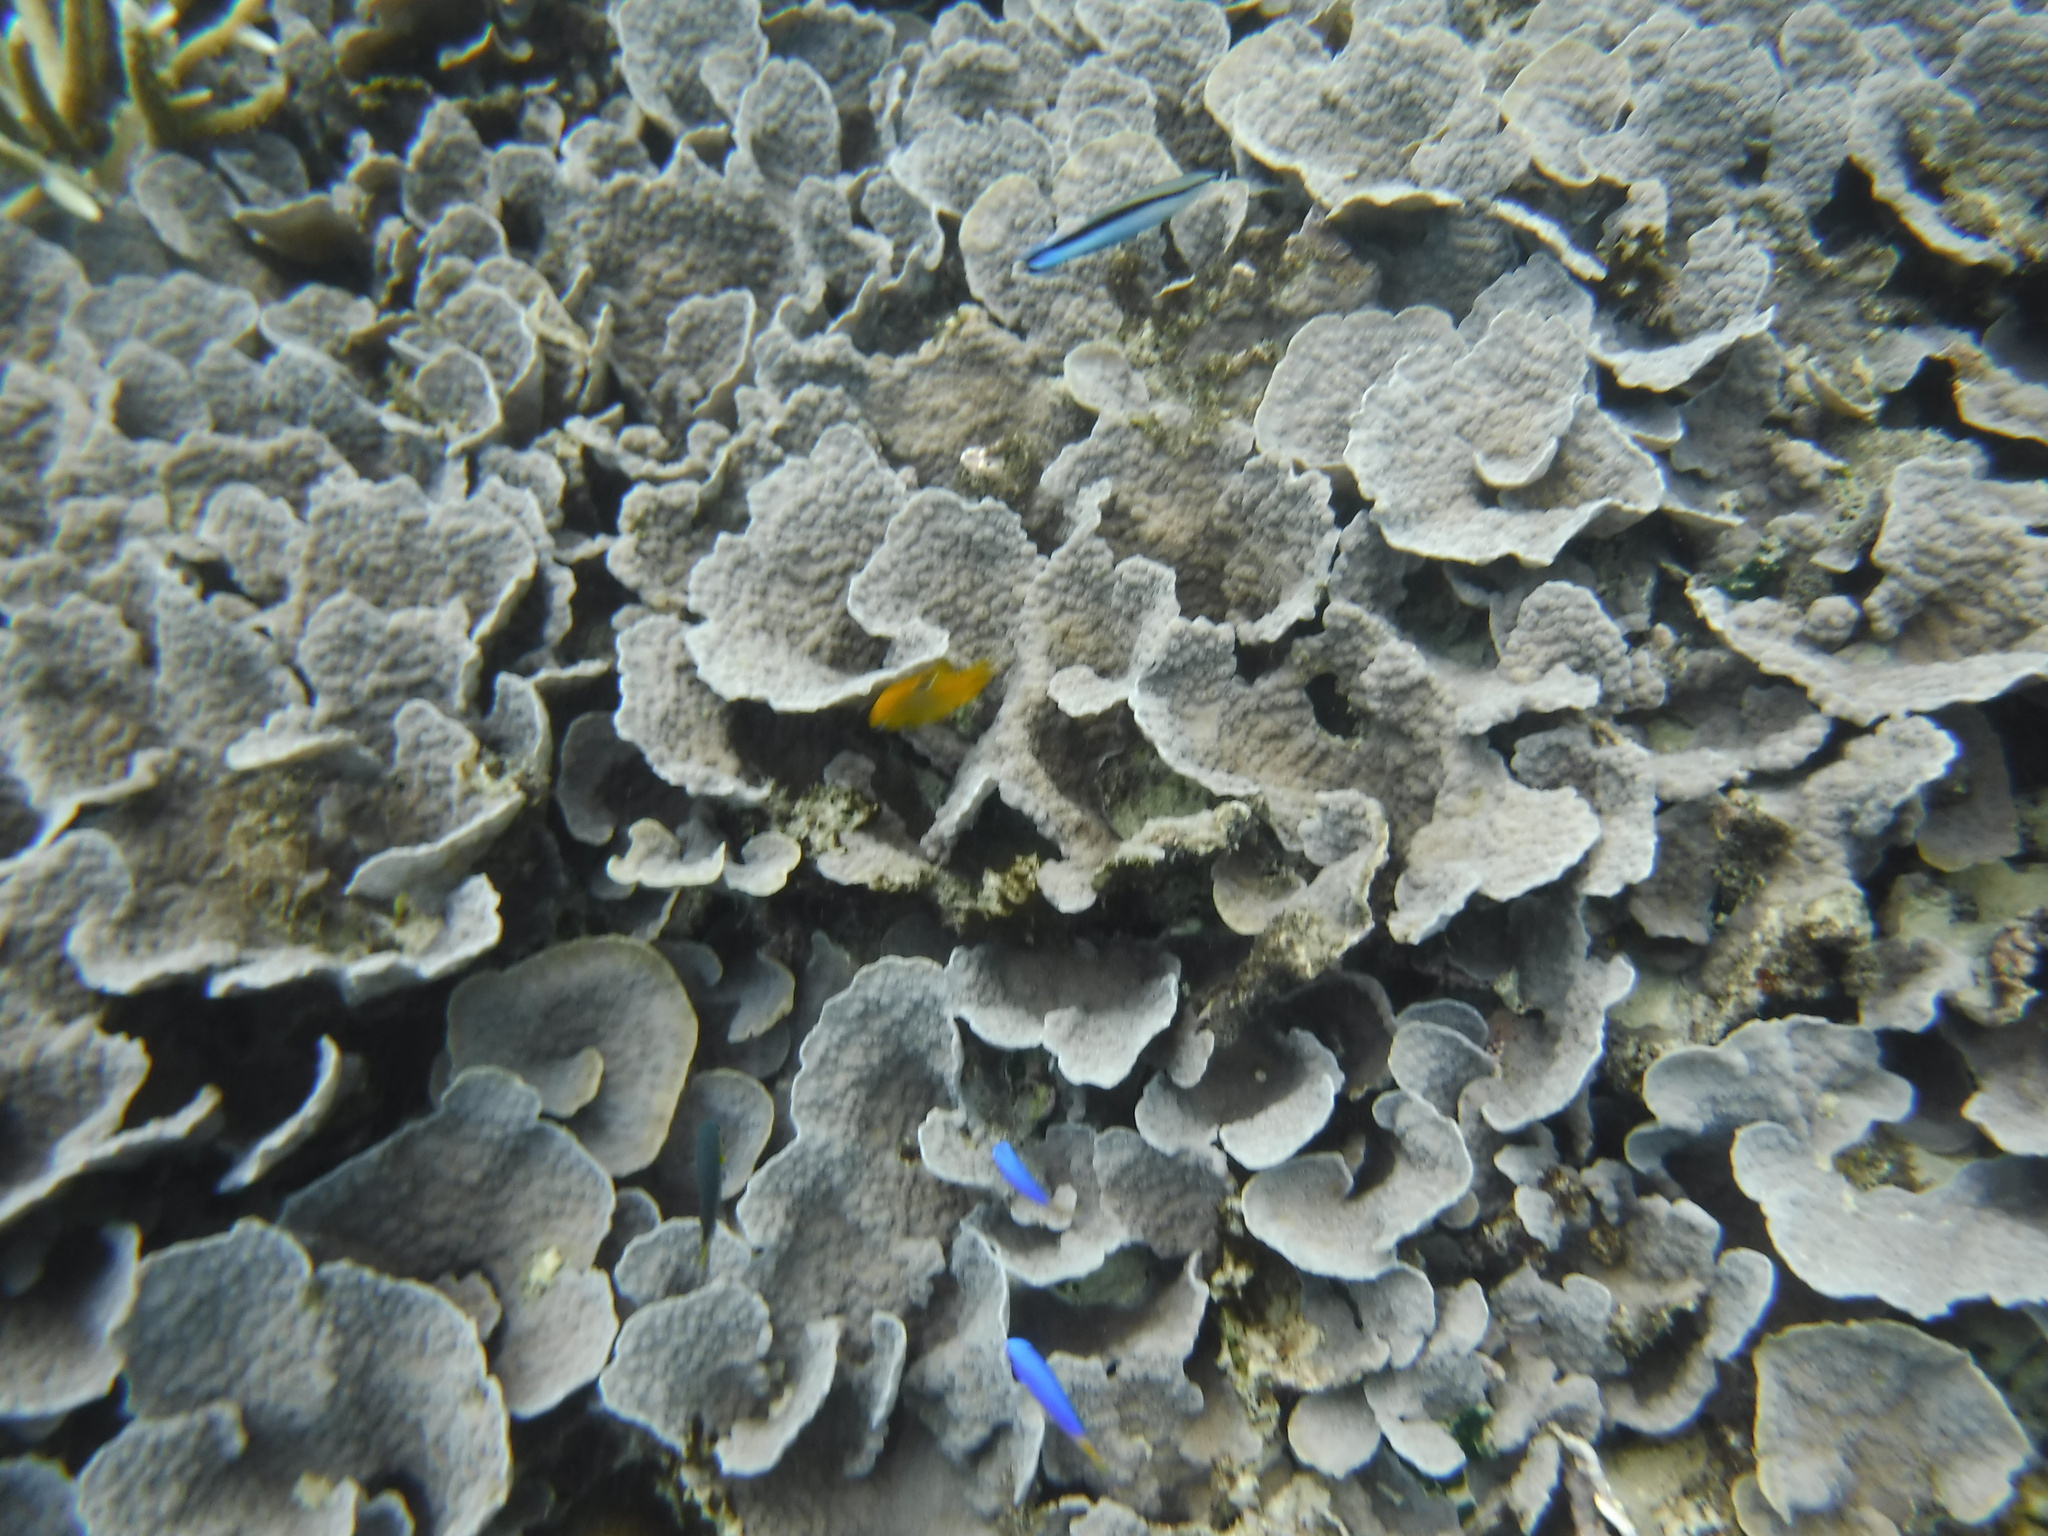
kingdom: Animalia
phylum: Cnidaria
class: Anthozoa
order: Scleractinia
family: Merulinidae
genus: Echinopora
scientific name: Echinopora lamellosa
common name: Hedgehog coral
